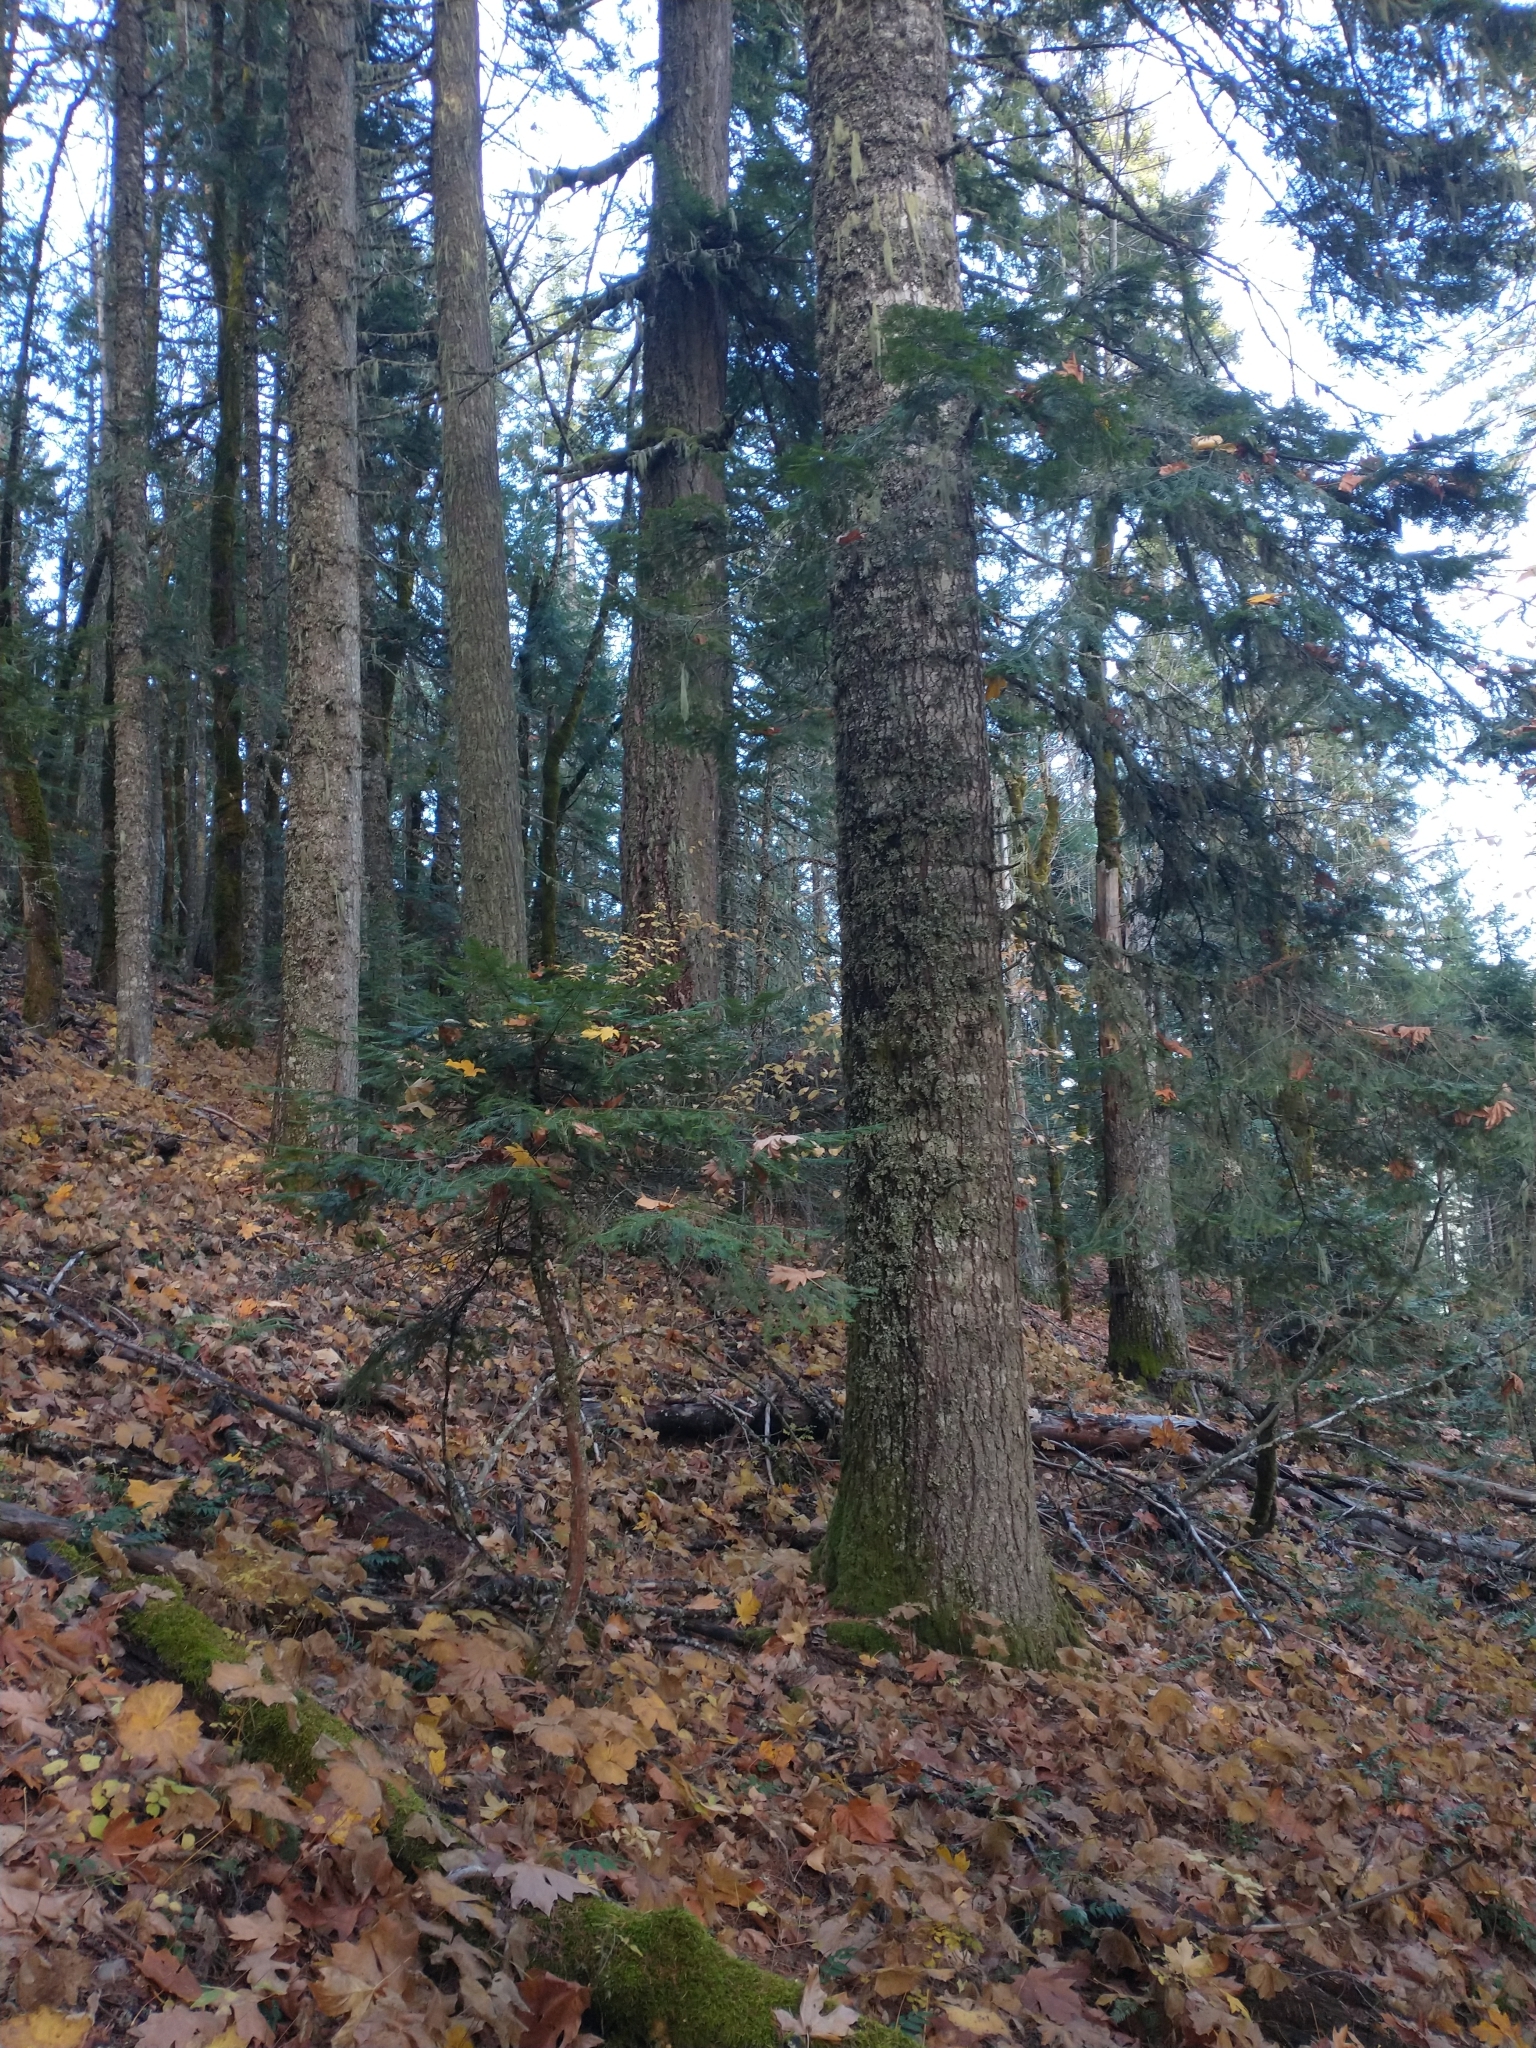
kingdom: Plantae
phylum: Tracheophyta
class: Pinopsida
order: Pinales
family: Pinaceae
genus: Abies
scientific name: Abies grandis
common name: Giant fir
